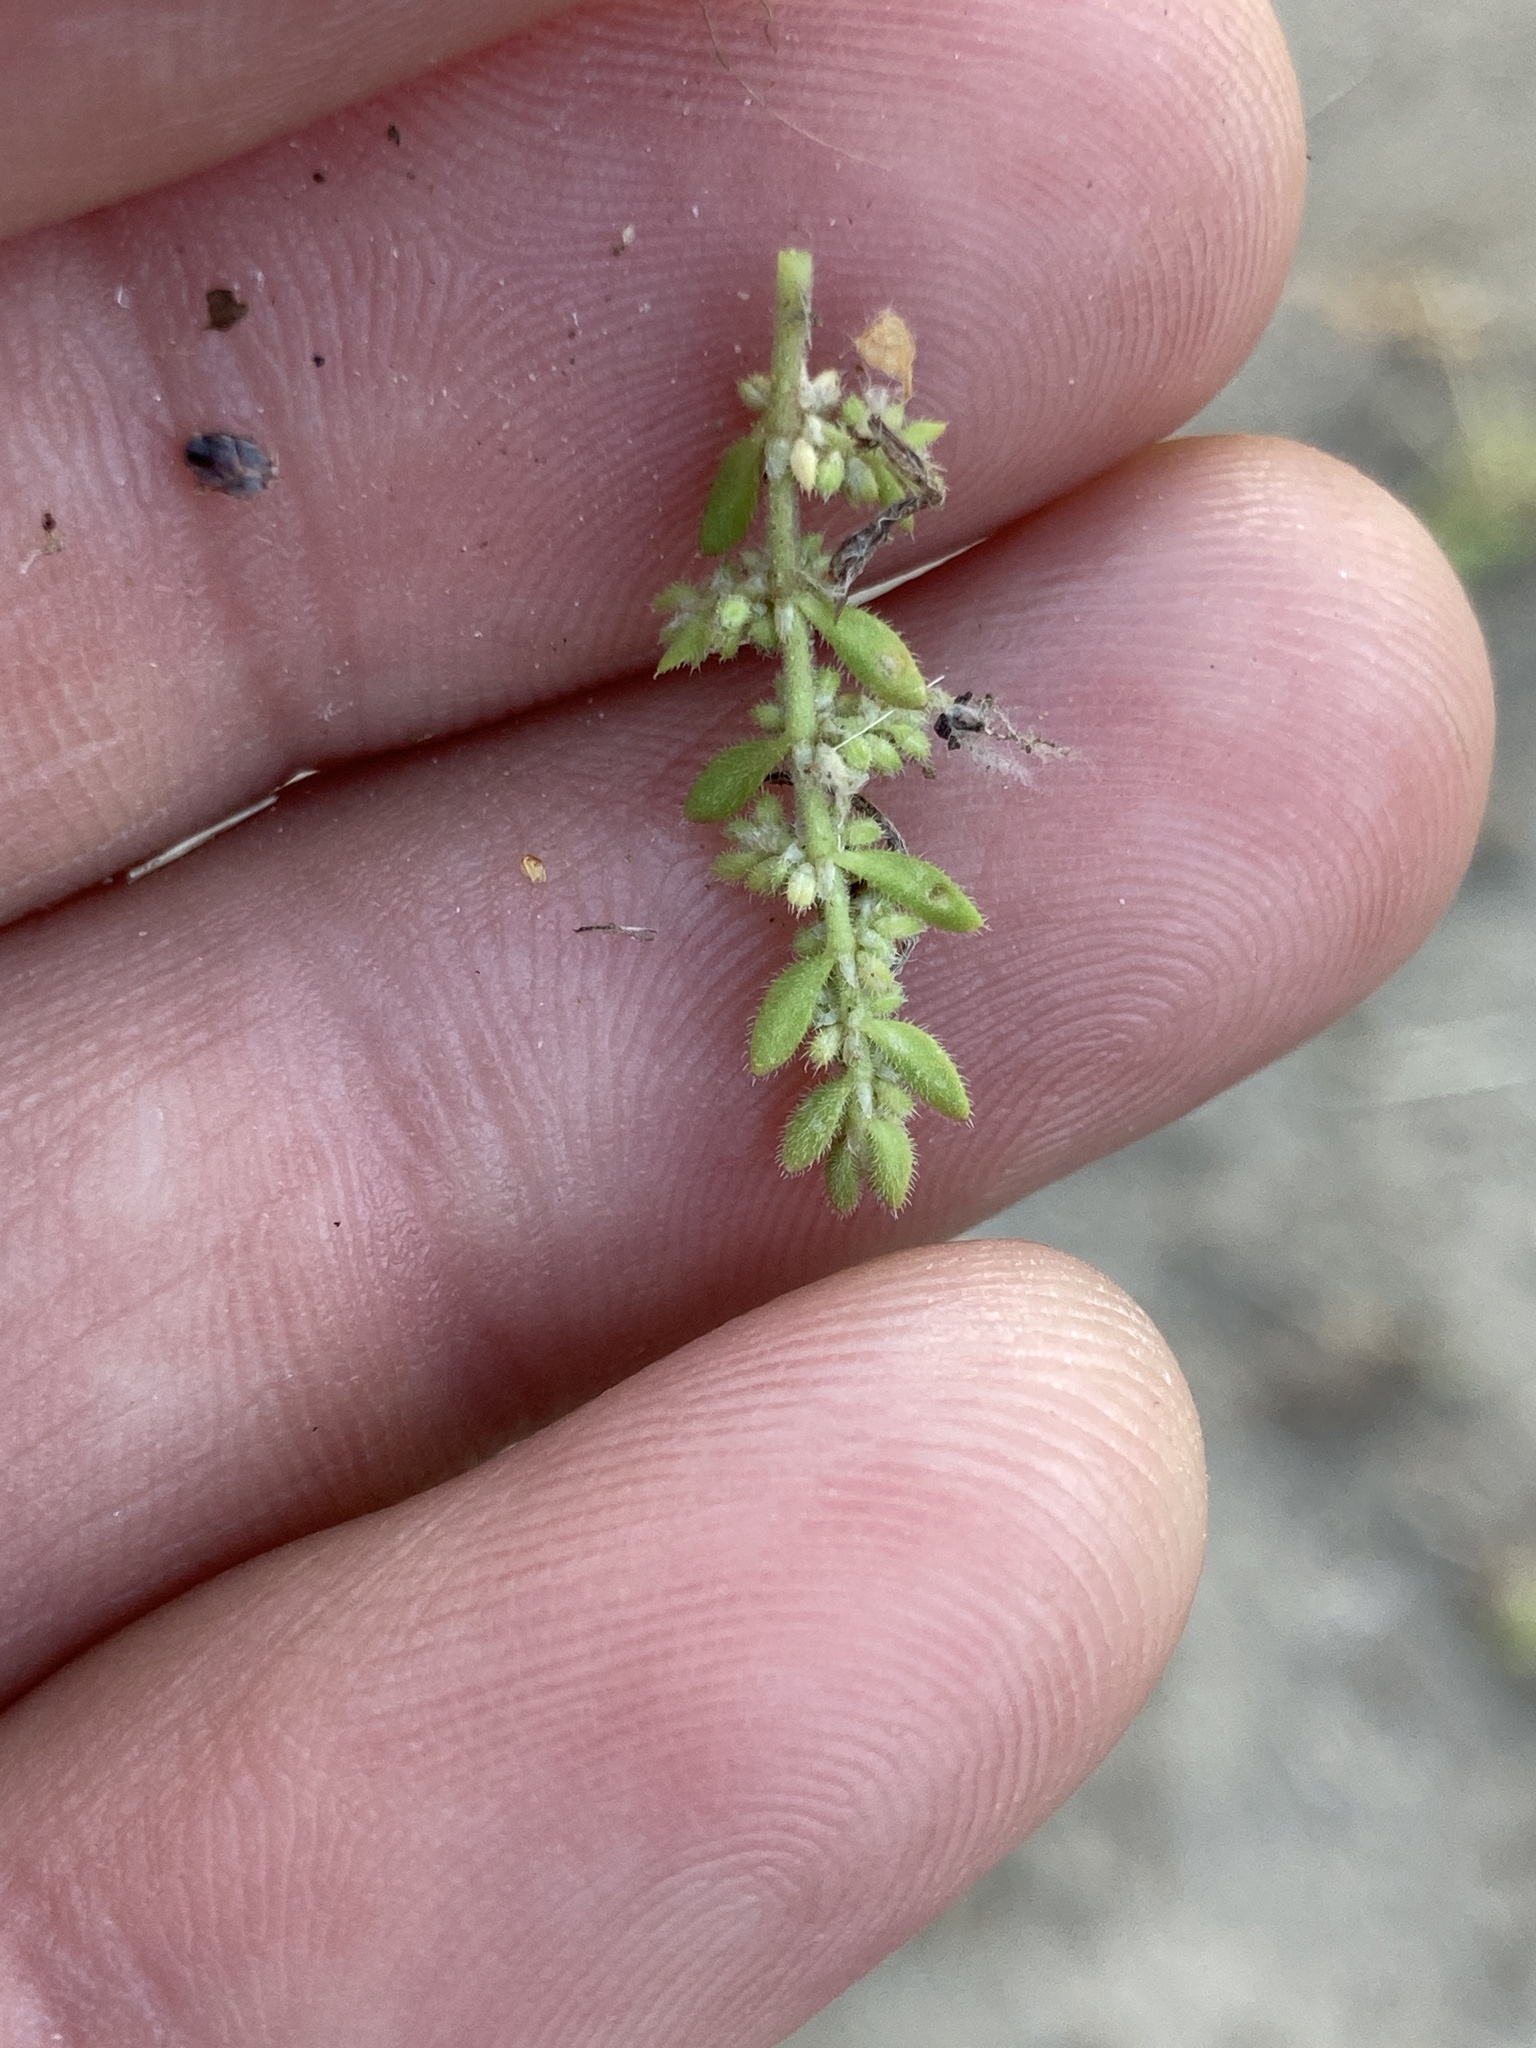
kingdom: Plantae
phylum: Tracheophyta
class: Magnoliopsida
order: Caryophyllales
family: Caryophyllaceae
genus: Herniaria
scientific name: Herniaria hirsuta
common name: Hairy rupturewort
